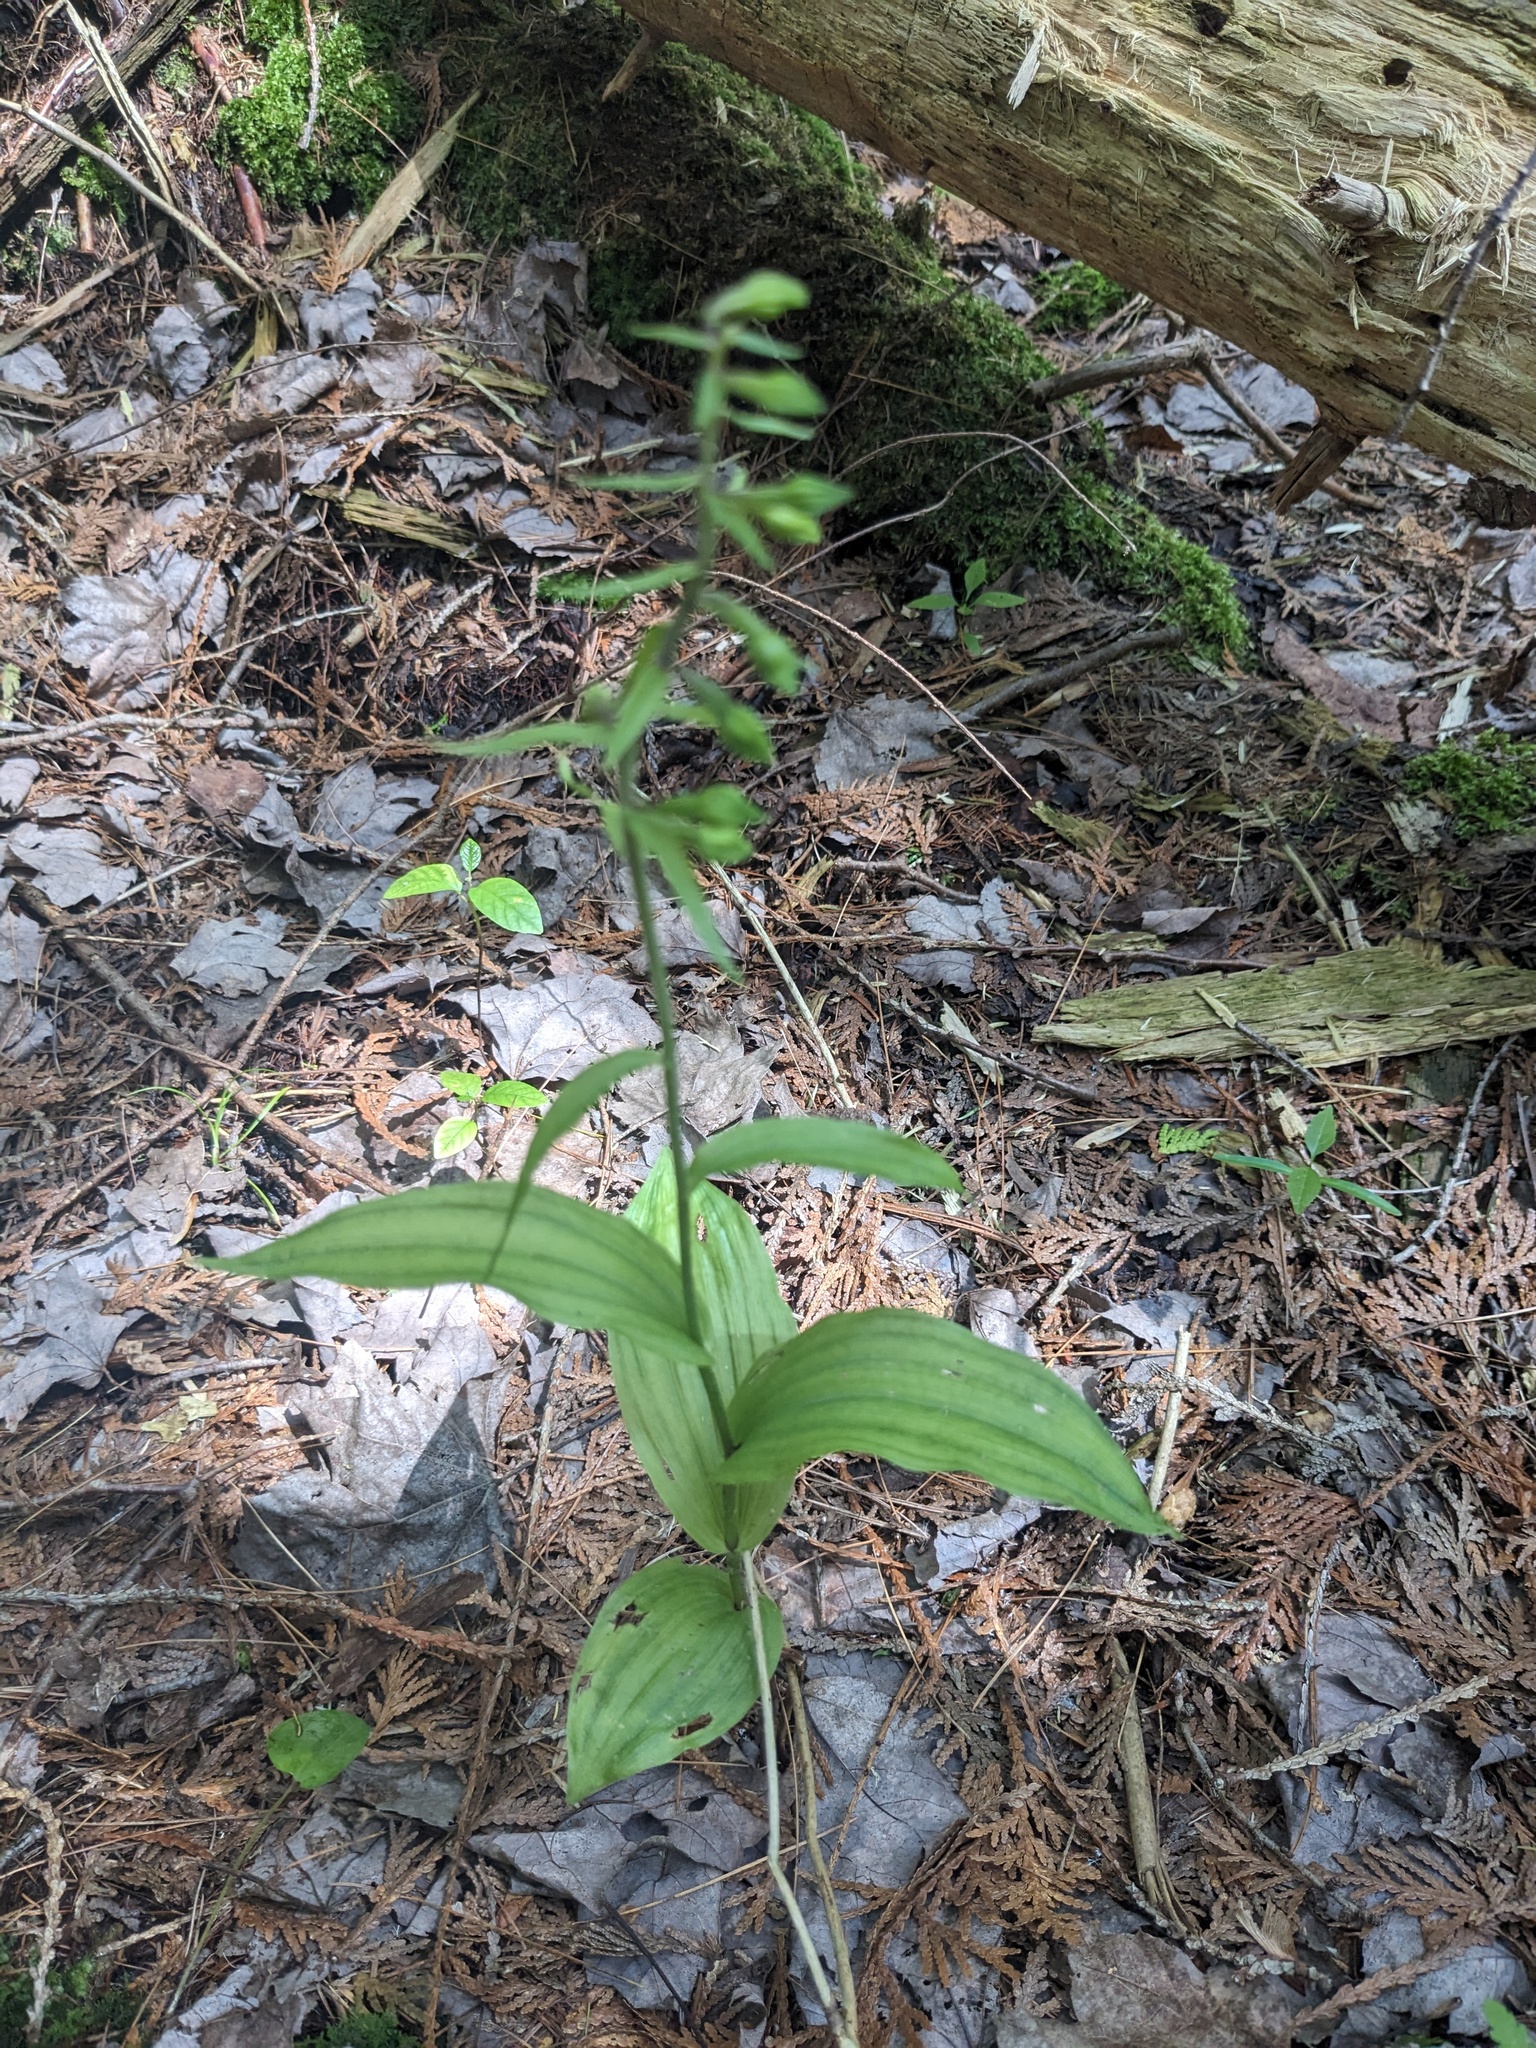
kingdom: Plantae
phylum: Tracheophyta
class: Liliopsida
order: Asparagales
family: Orchidaceae
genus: Epipactis
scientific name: Epipactis helleborine
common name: Broad-leaved helleborine
